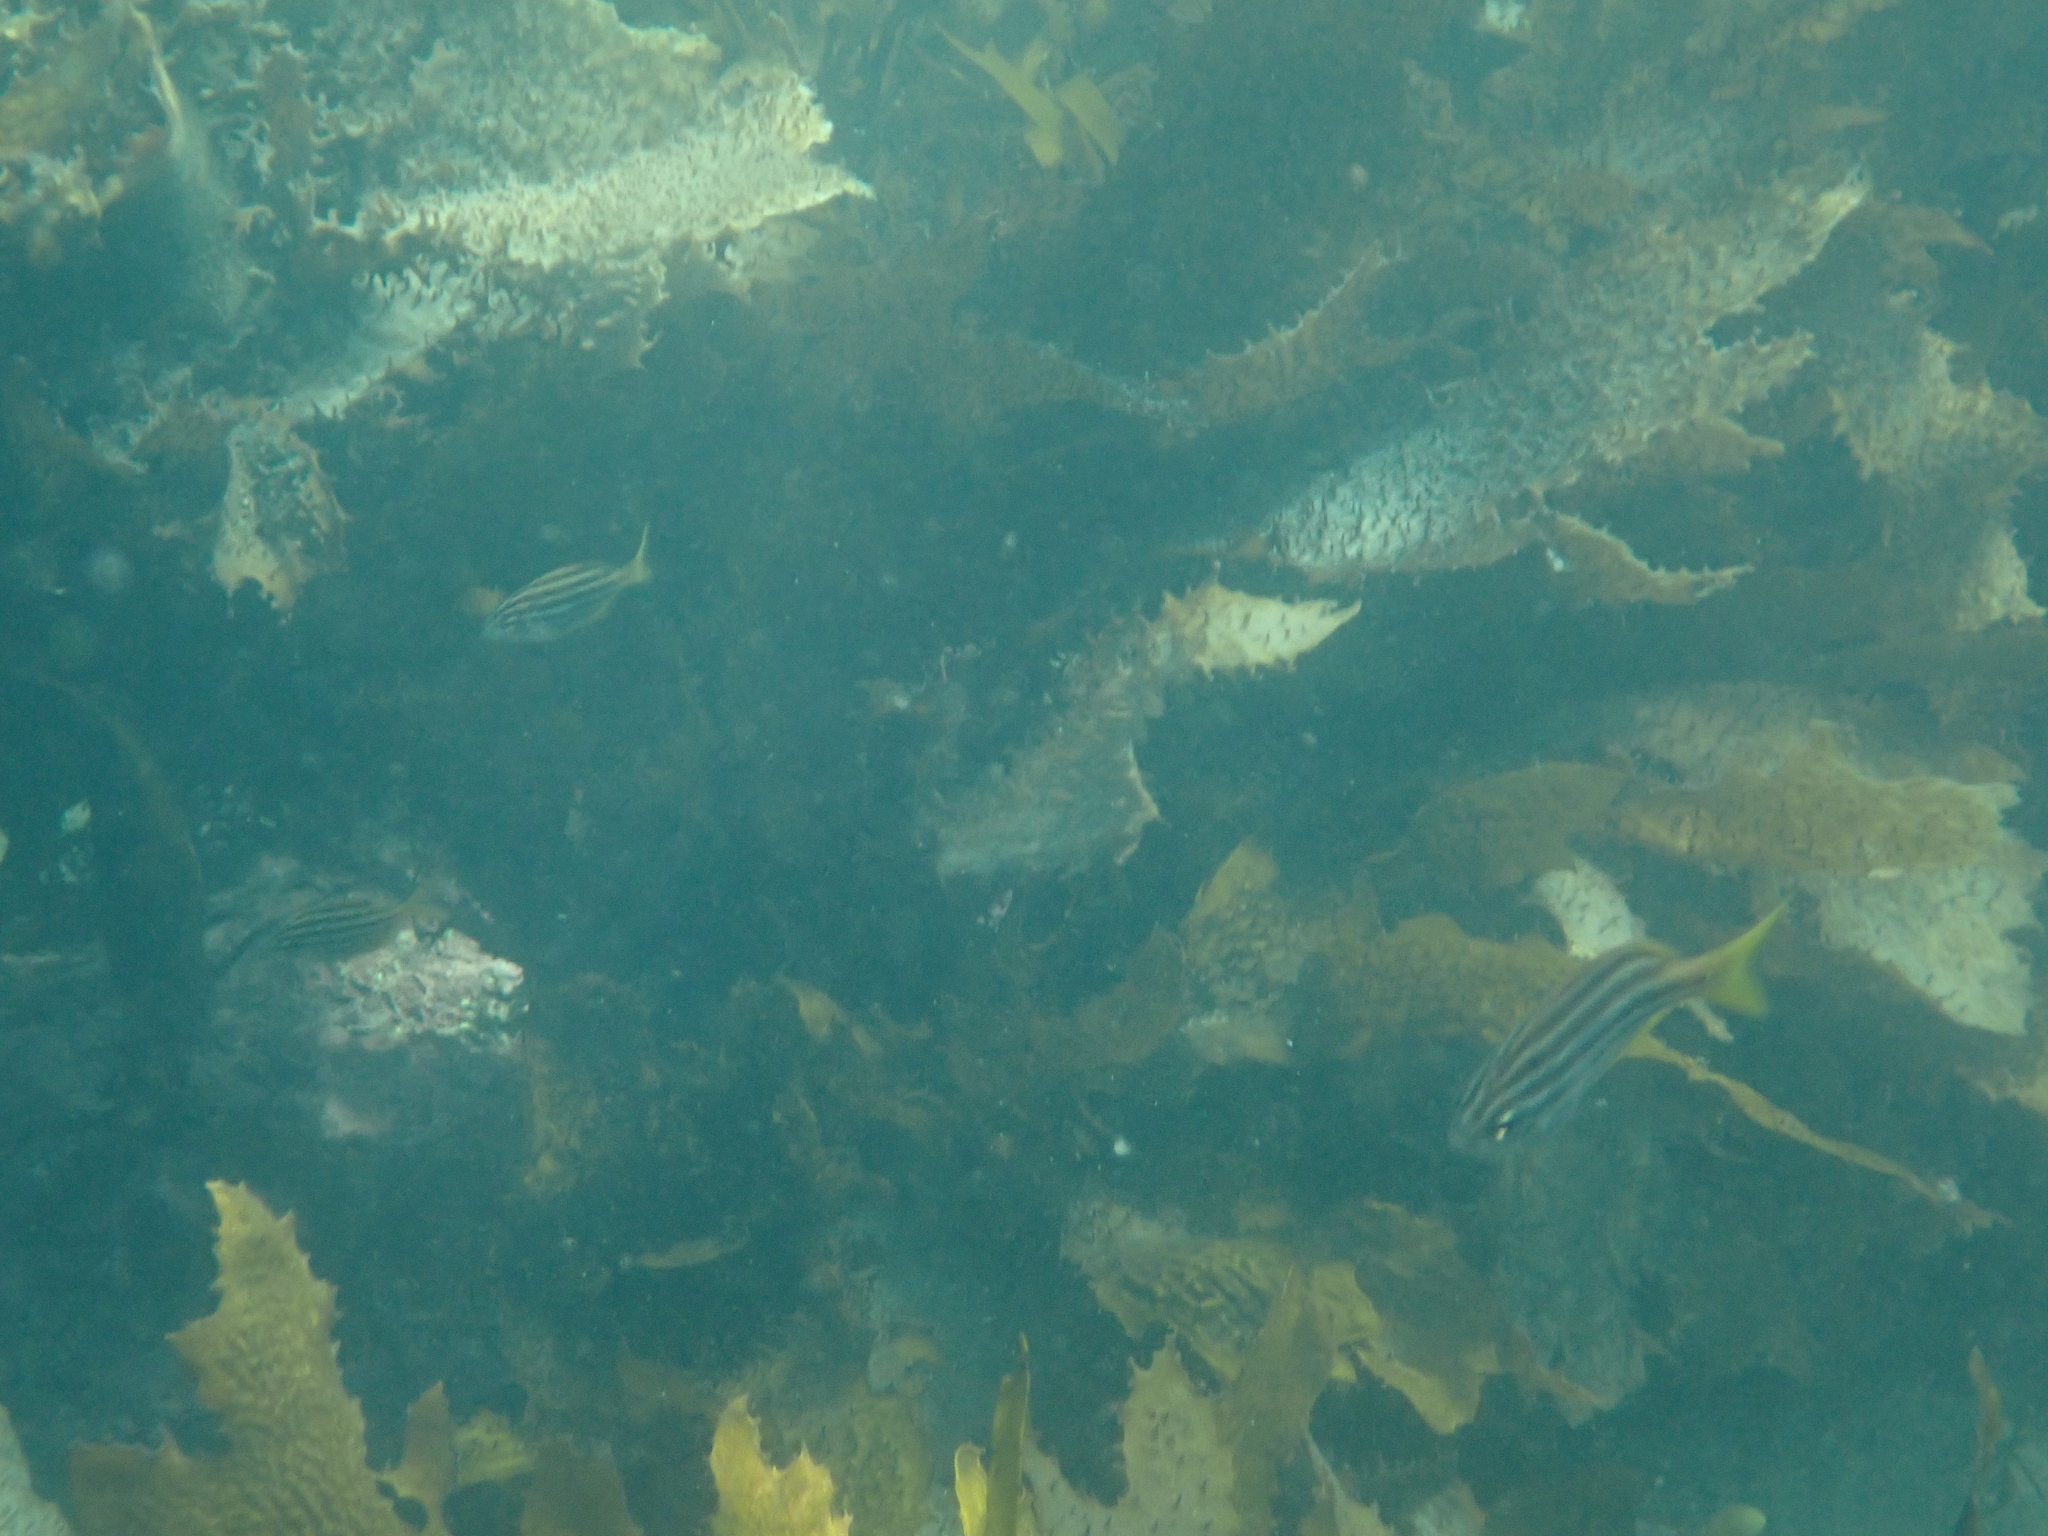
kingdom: Animalia
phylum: Chordata
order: Perciformes
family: Kyphosidae
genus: Atypichthys
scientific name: Atypichthys strigatus
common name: Australian mado
